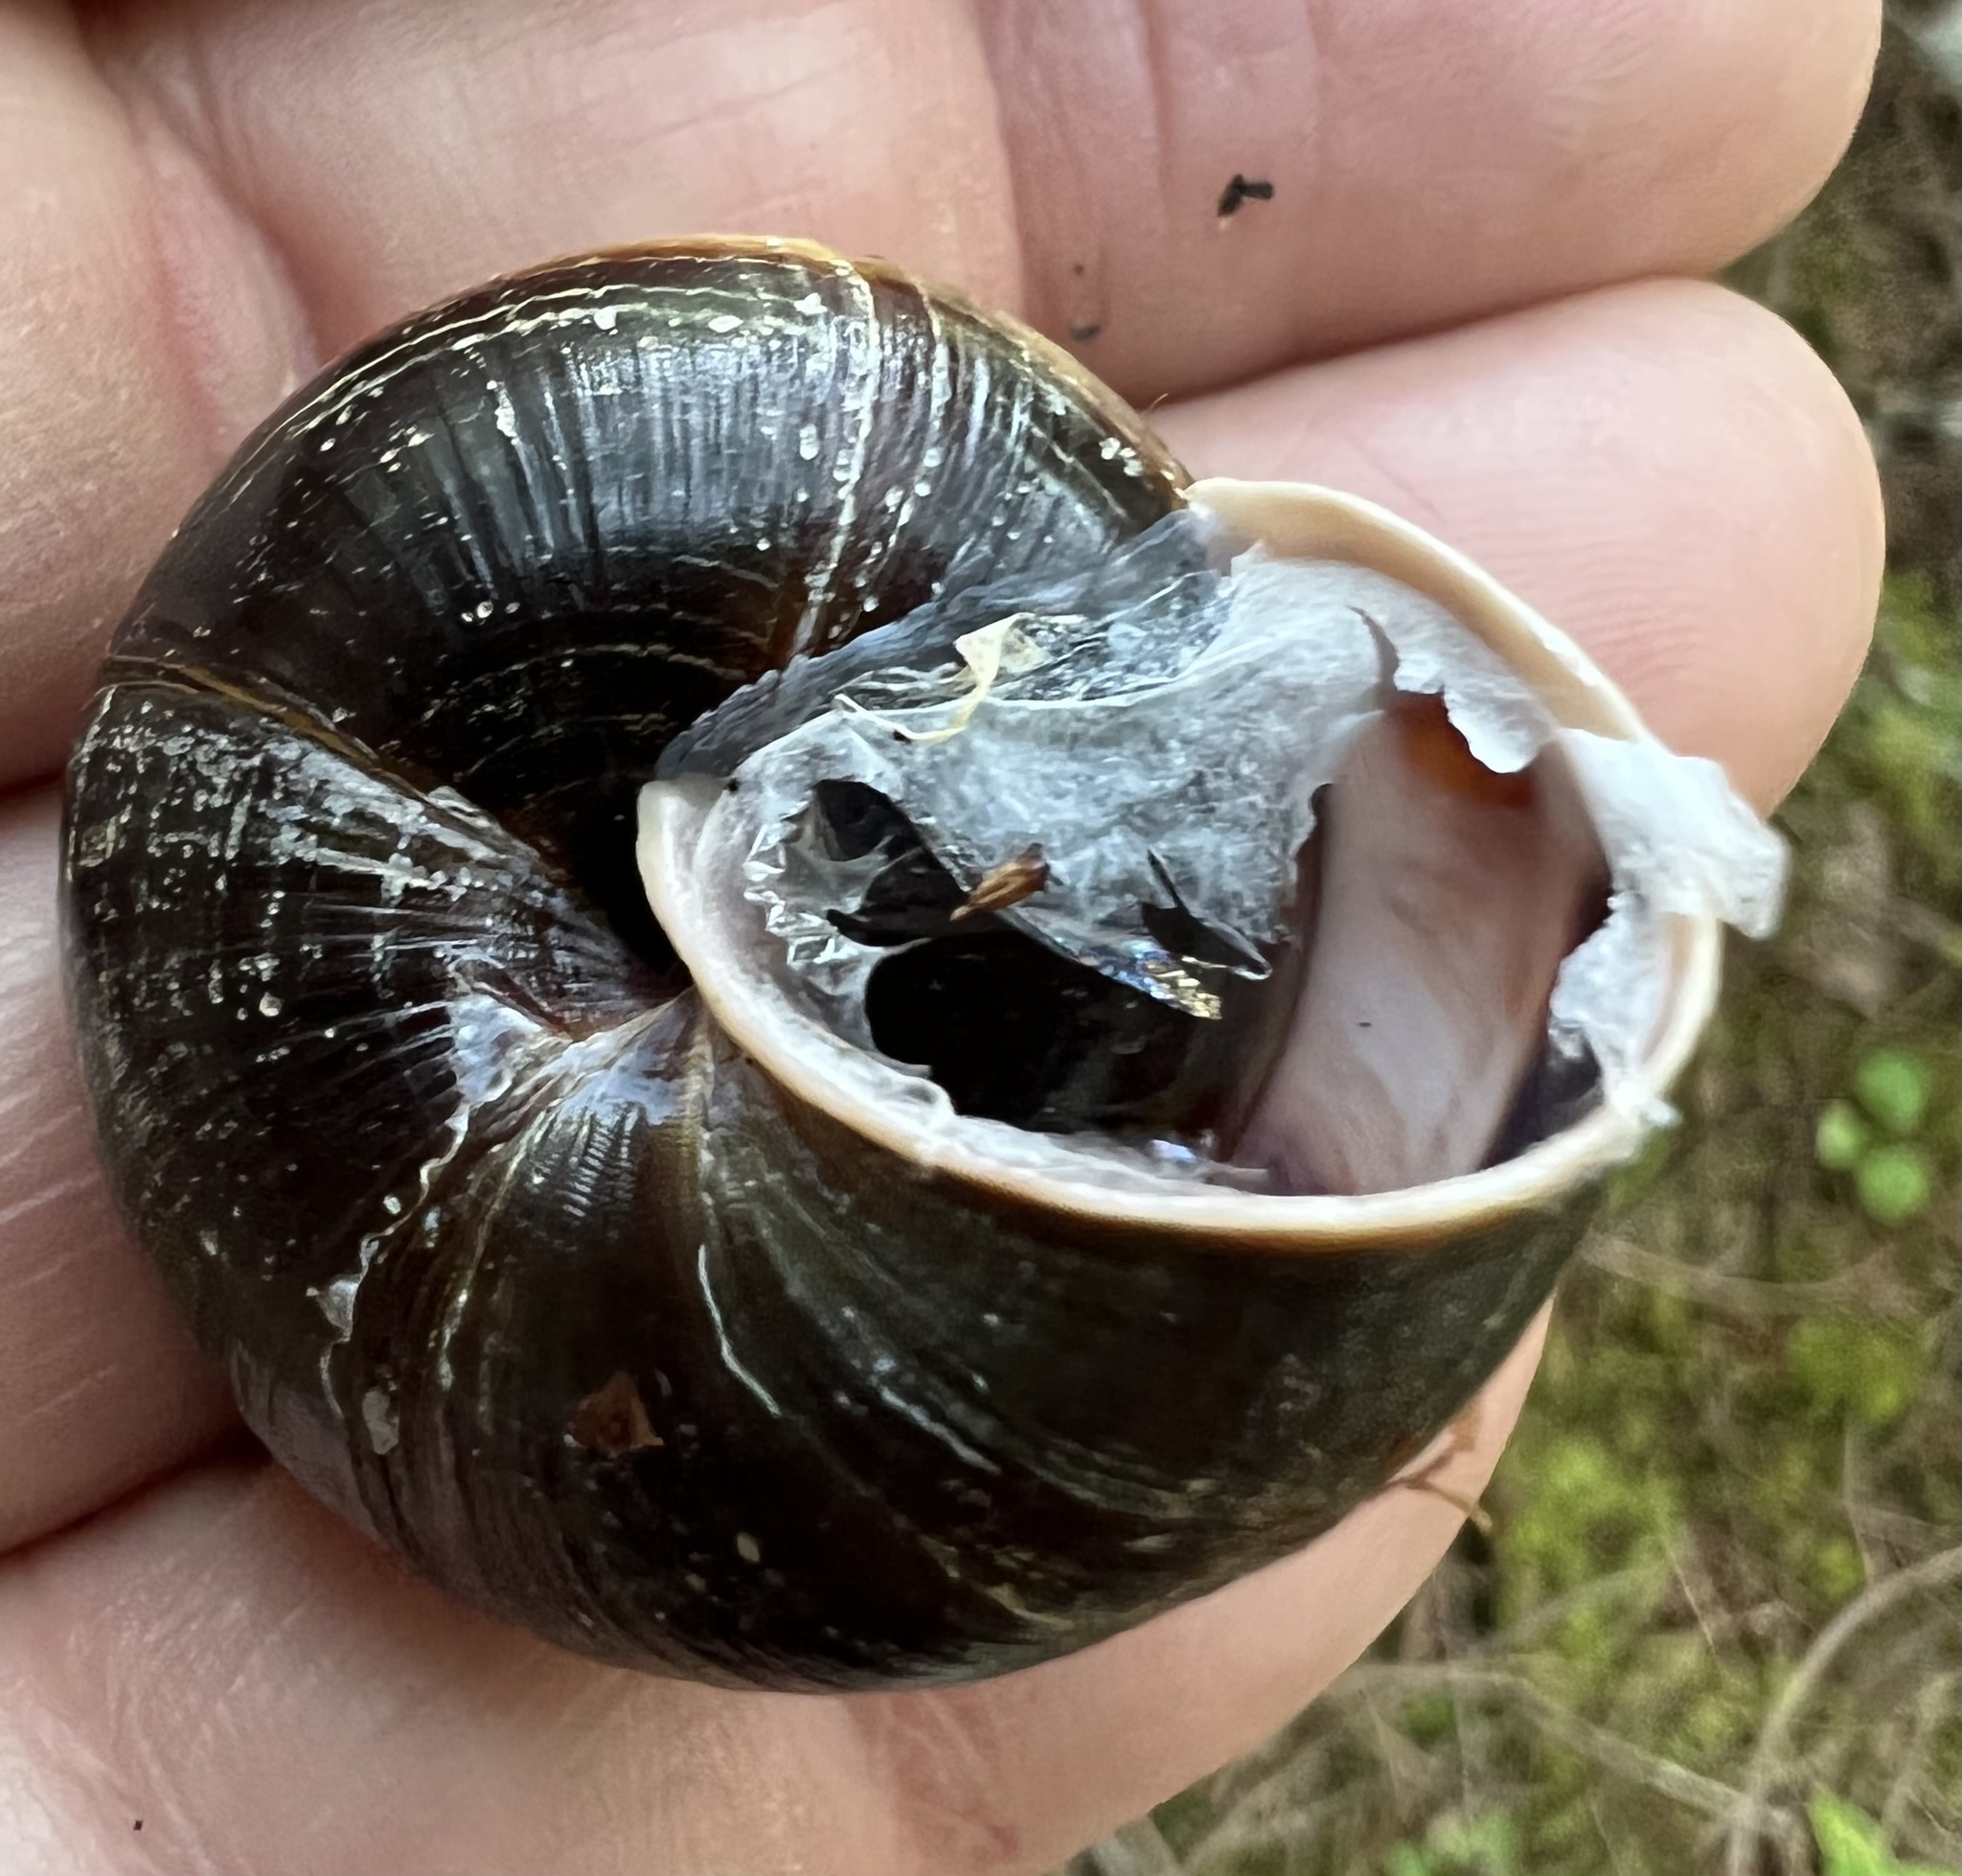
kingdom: Animalia
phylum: Mollusca
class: Gastropoda
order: Stylommatophora
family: Xanthonychidae
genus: Monadenia
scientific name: Monadenia fidelis
